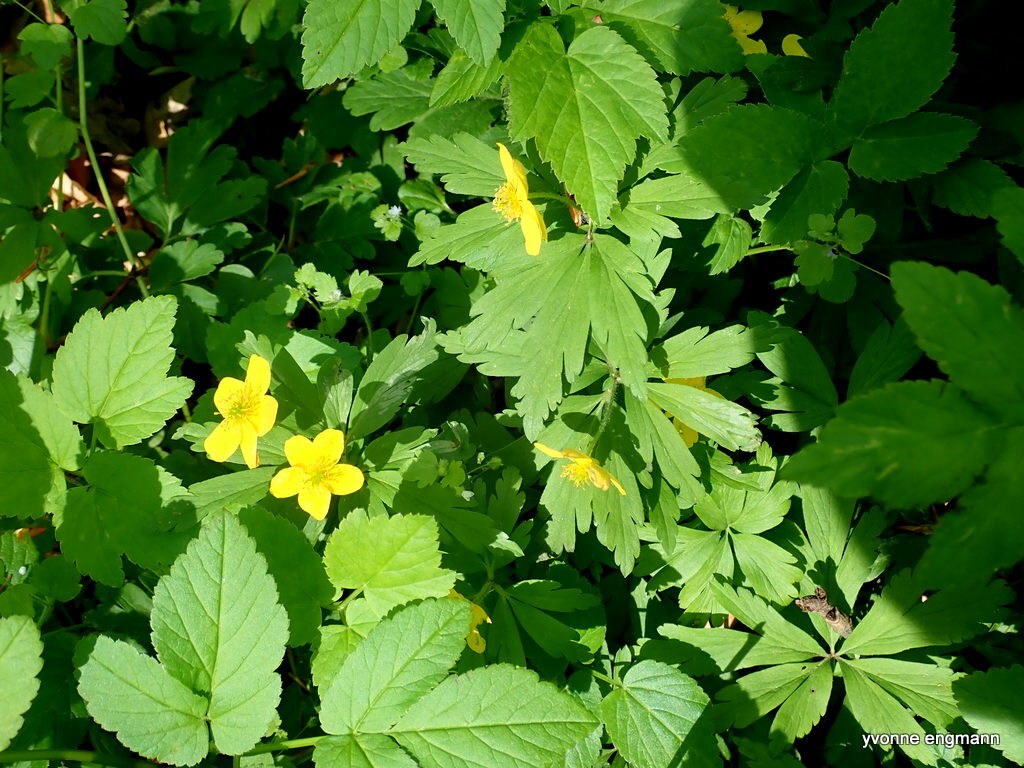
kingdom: Plantae
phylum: Tracheophyta
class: Magnoliopsida
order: Ranunculales
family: Ranunculaceae
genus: Anemone
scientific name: Anemone ranunculoides
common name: Yellow anemone
